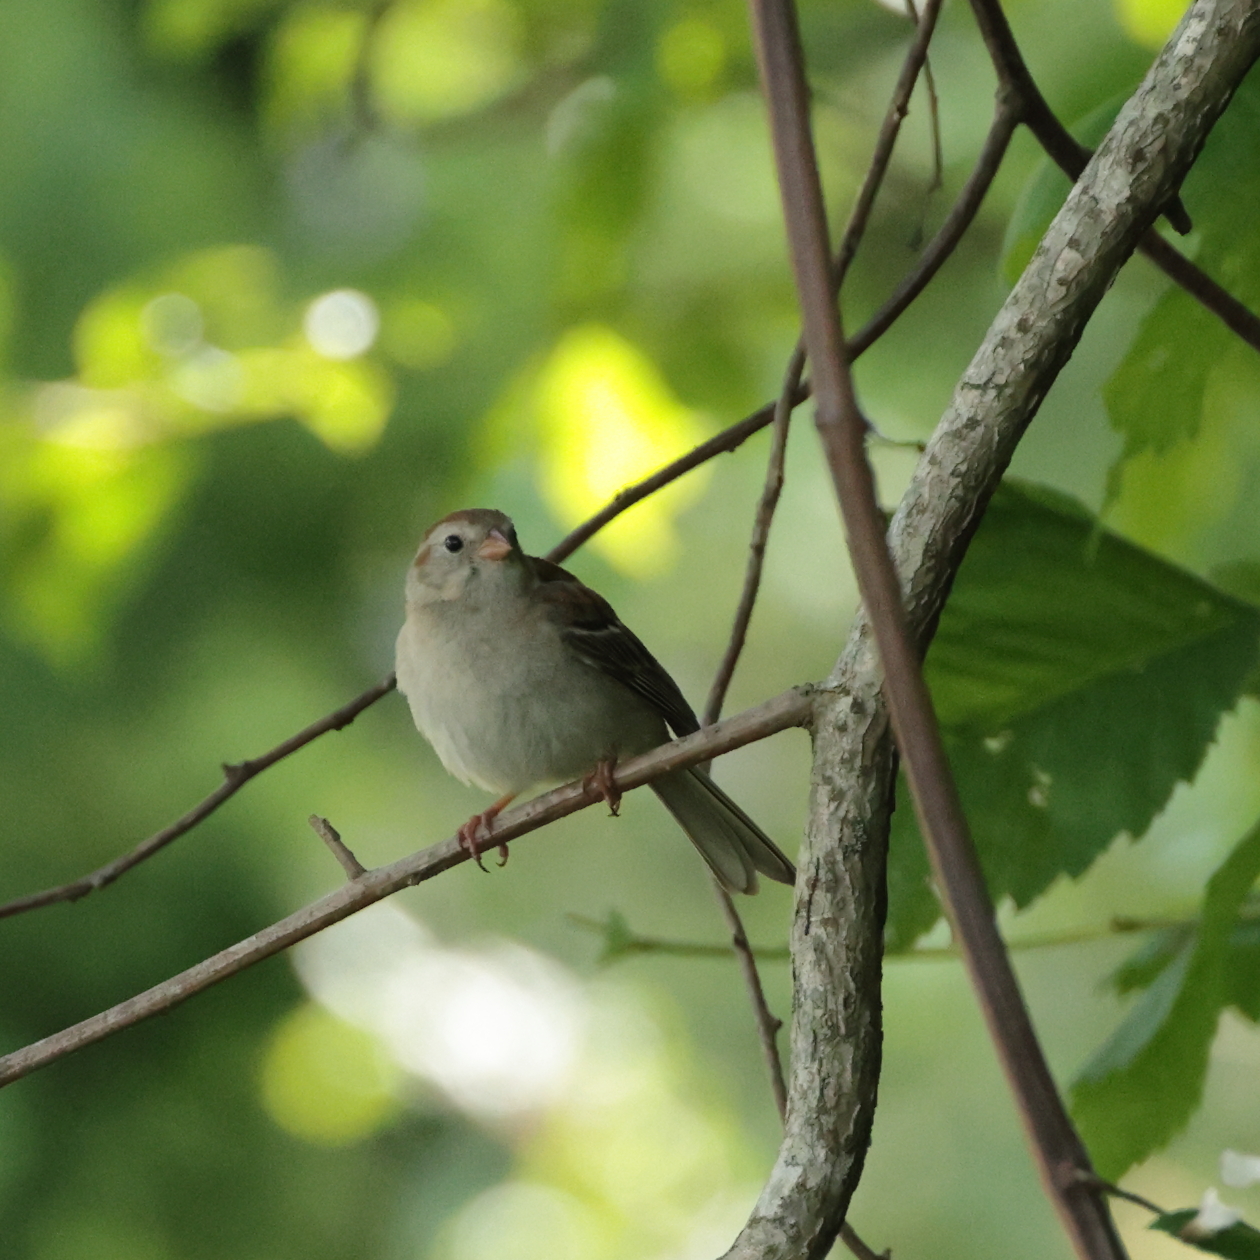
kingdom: Animalia
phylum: Chordata
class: Aves
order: Passeriformes
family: Passerellidae
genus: Spizella
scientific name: Spizella pusilla
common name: Field sparrow
